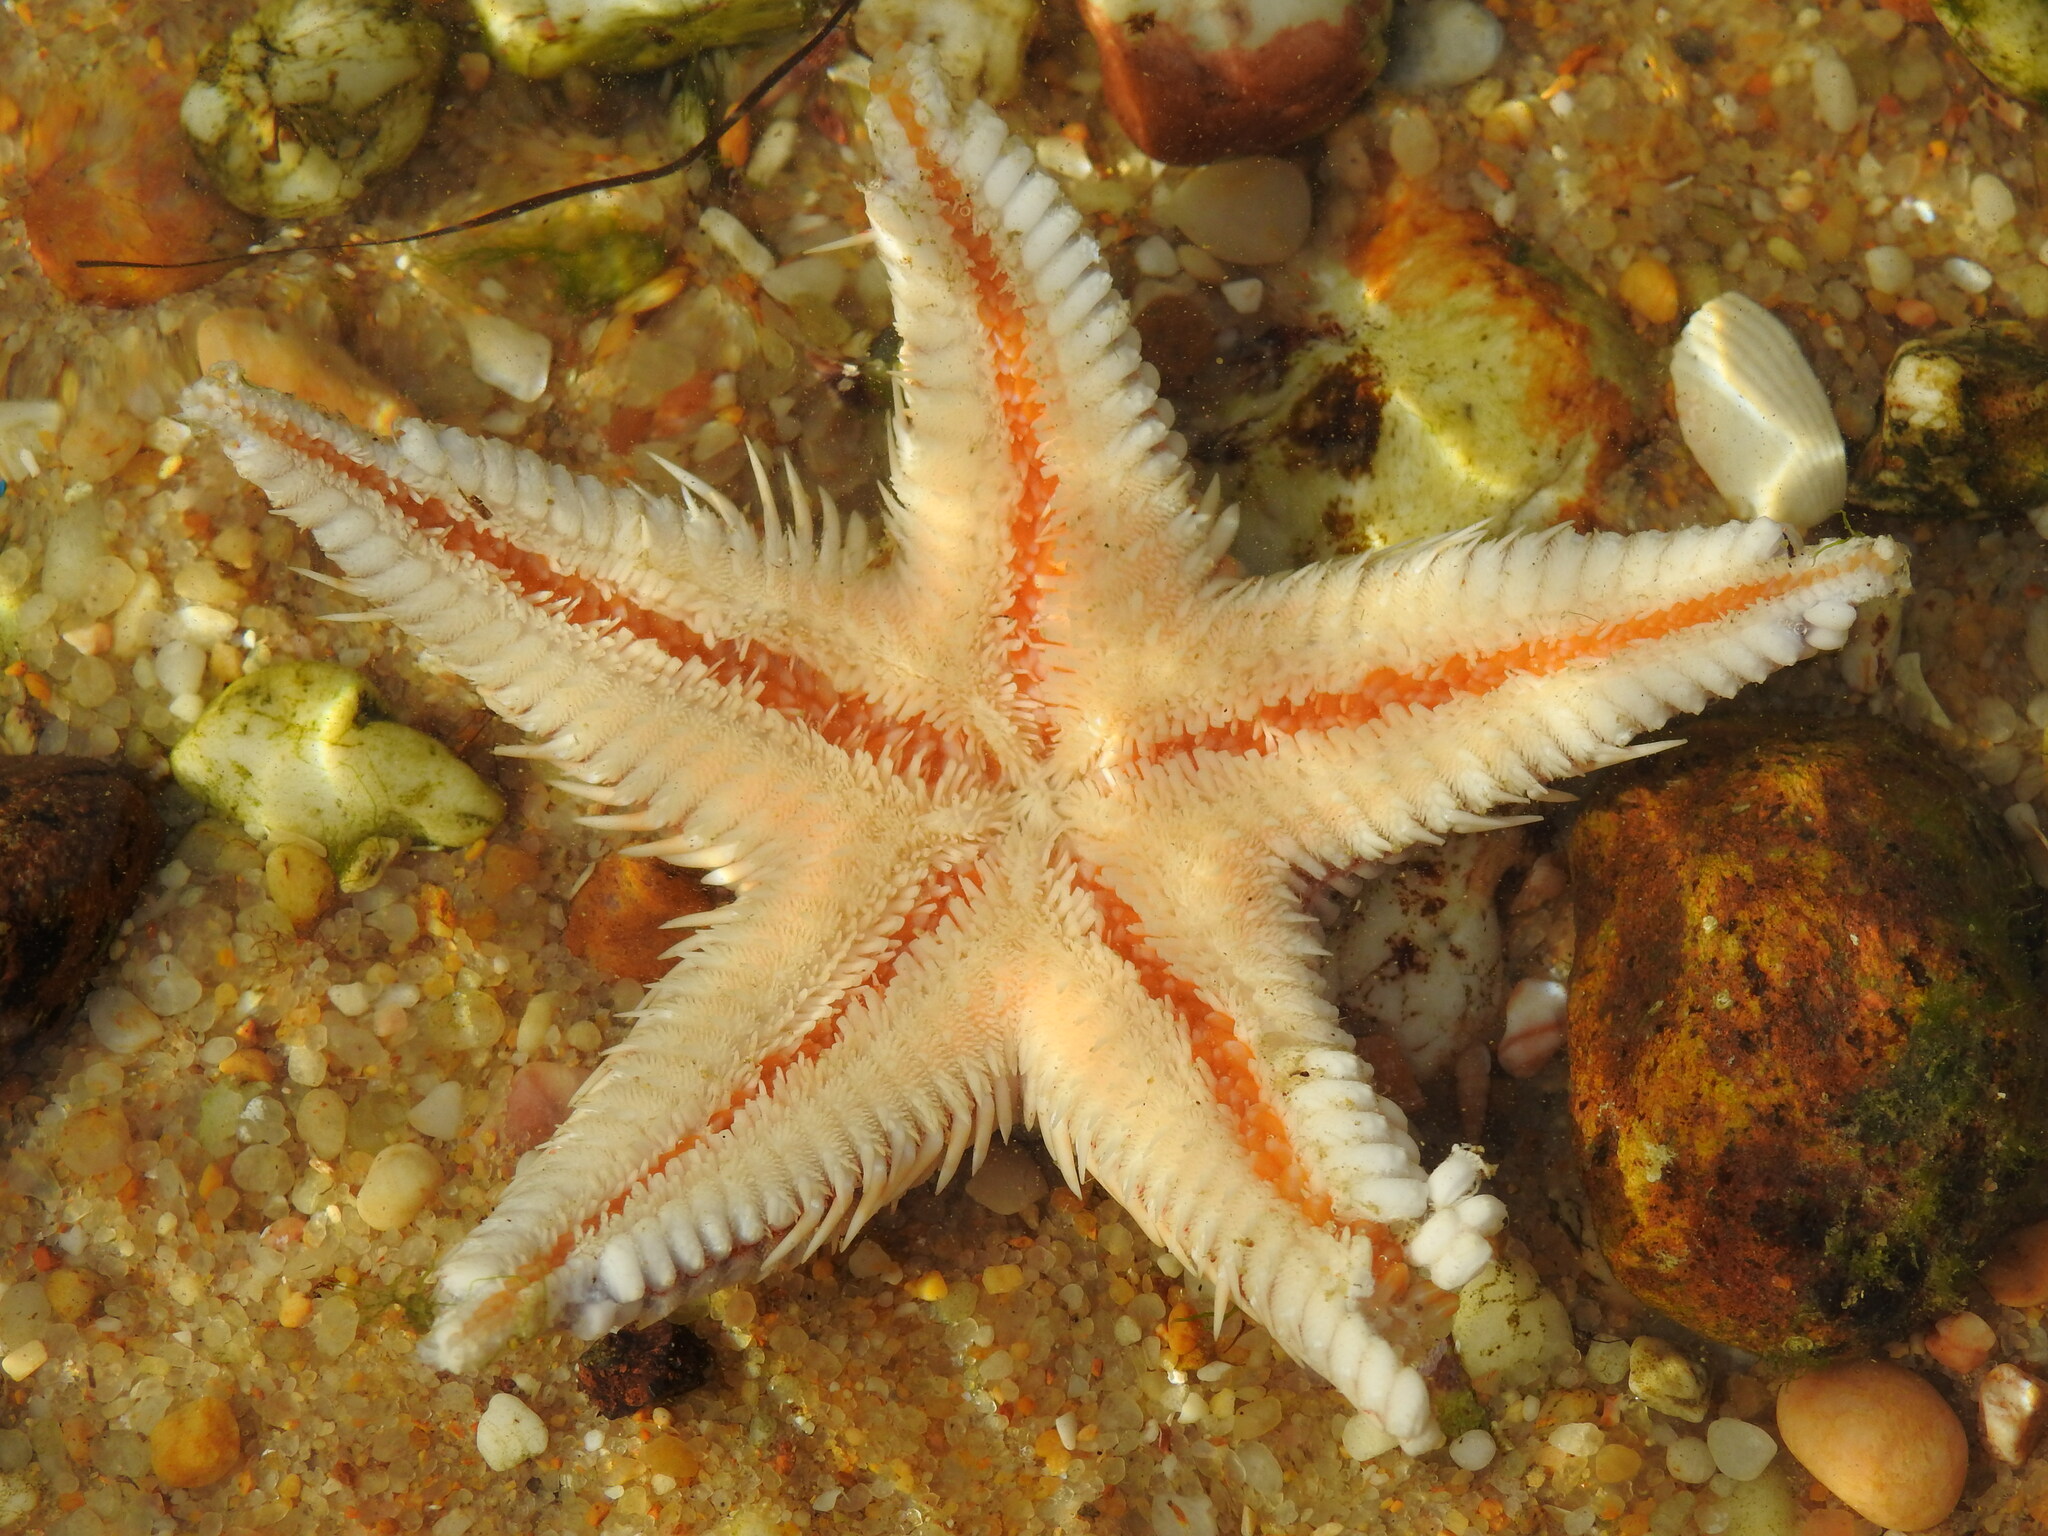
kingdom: Animalia
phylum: Echinodermata
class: Asteroidea
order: Paxillosida
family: Astropectinidae
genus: Astropecten
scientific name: Astropecten aranciacus
